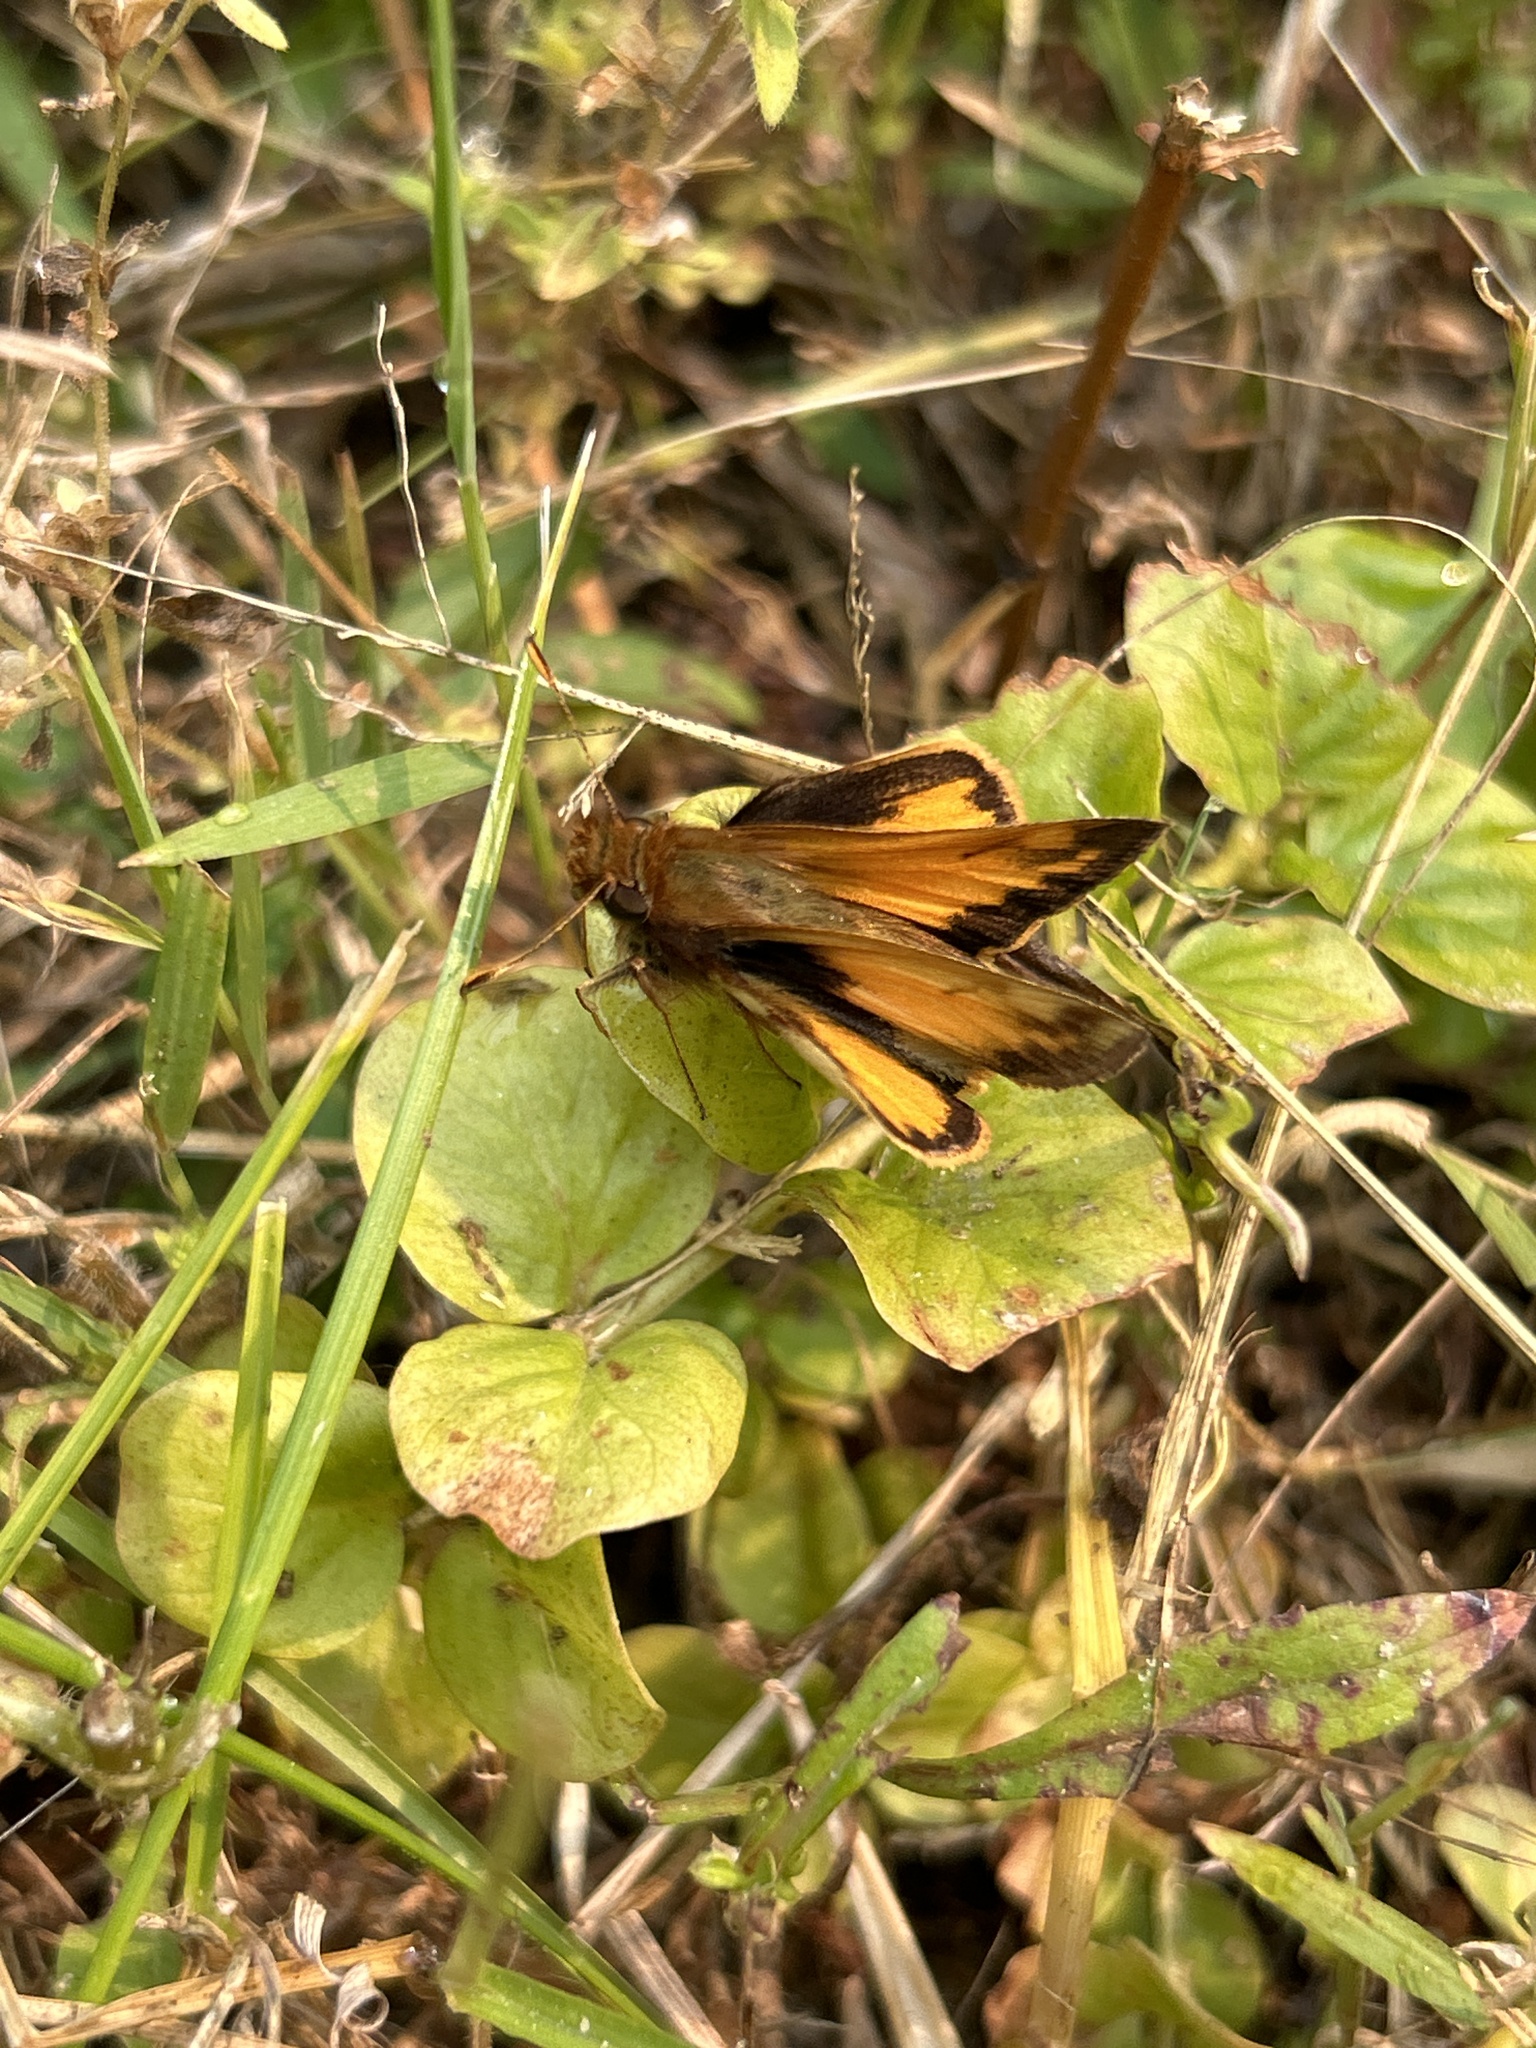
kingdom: Animalia
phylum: Arthropoda
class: Insecta
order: Lepidoptera
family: Hesperiidae
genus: Lon
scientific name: Lon zabulon
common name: Zabulon skipper
